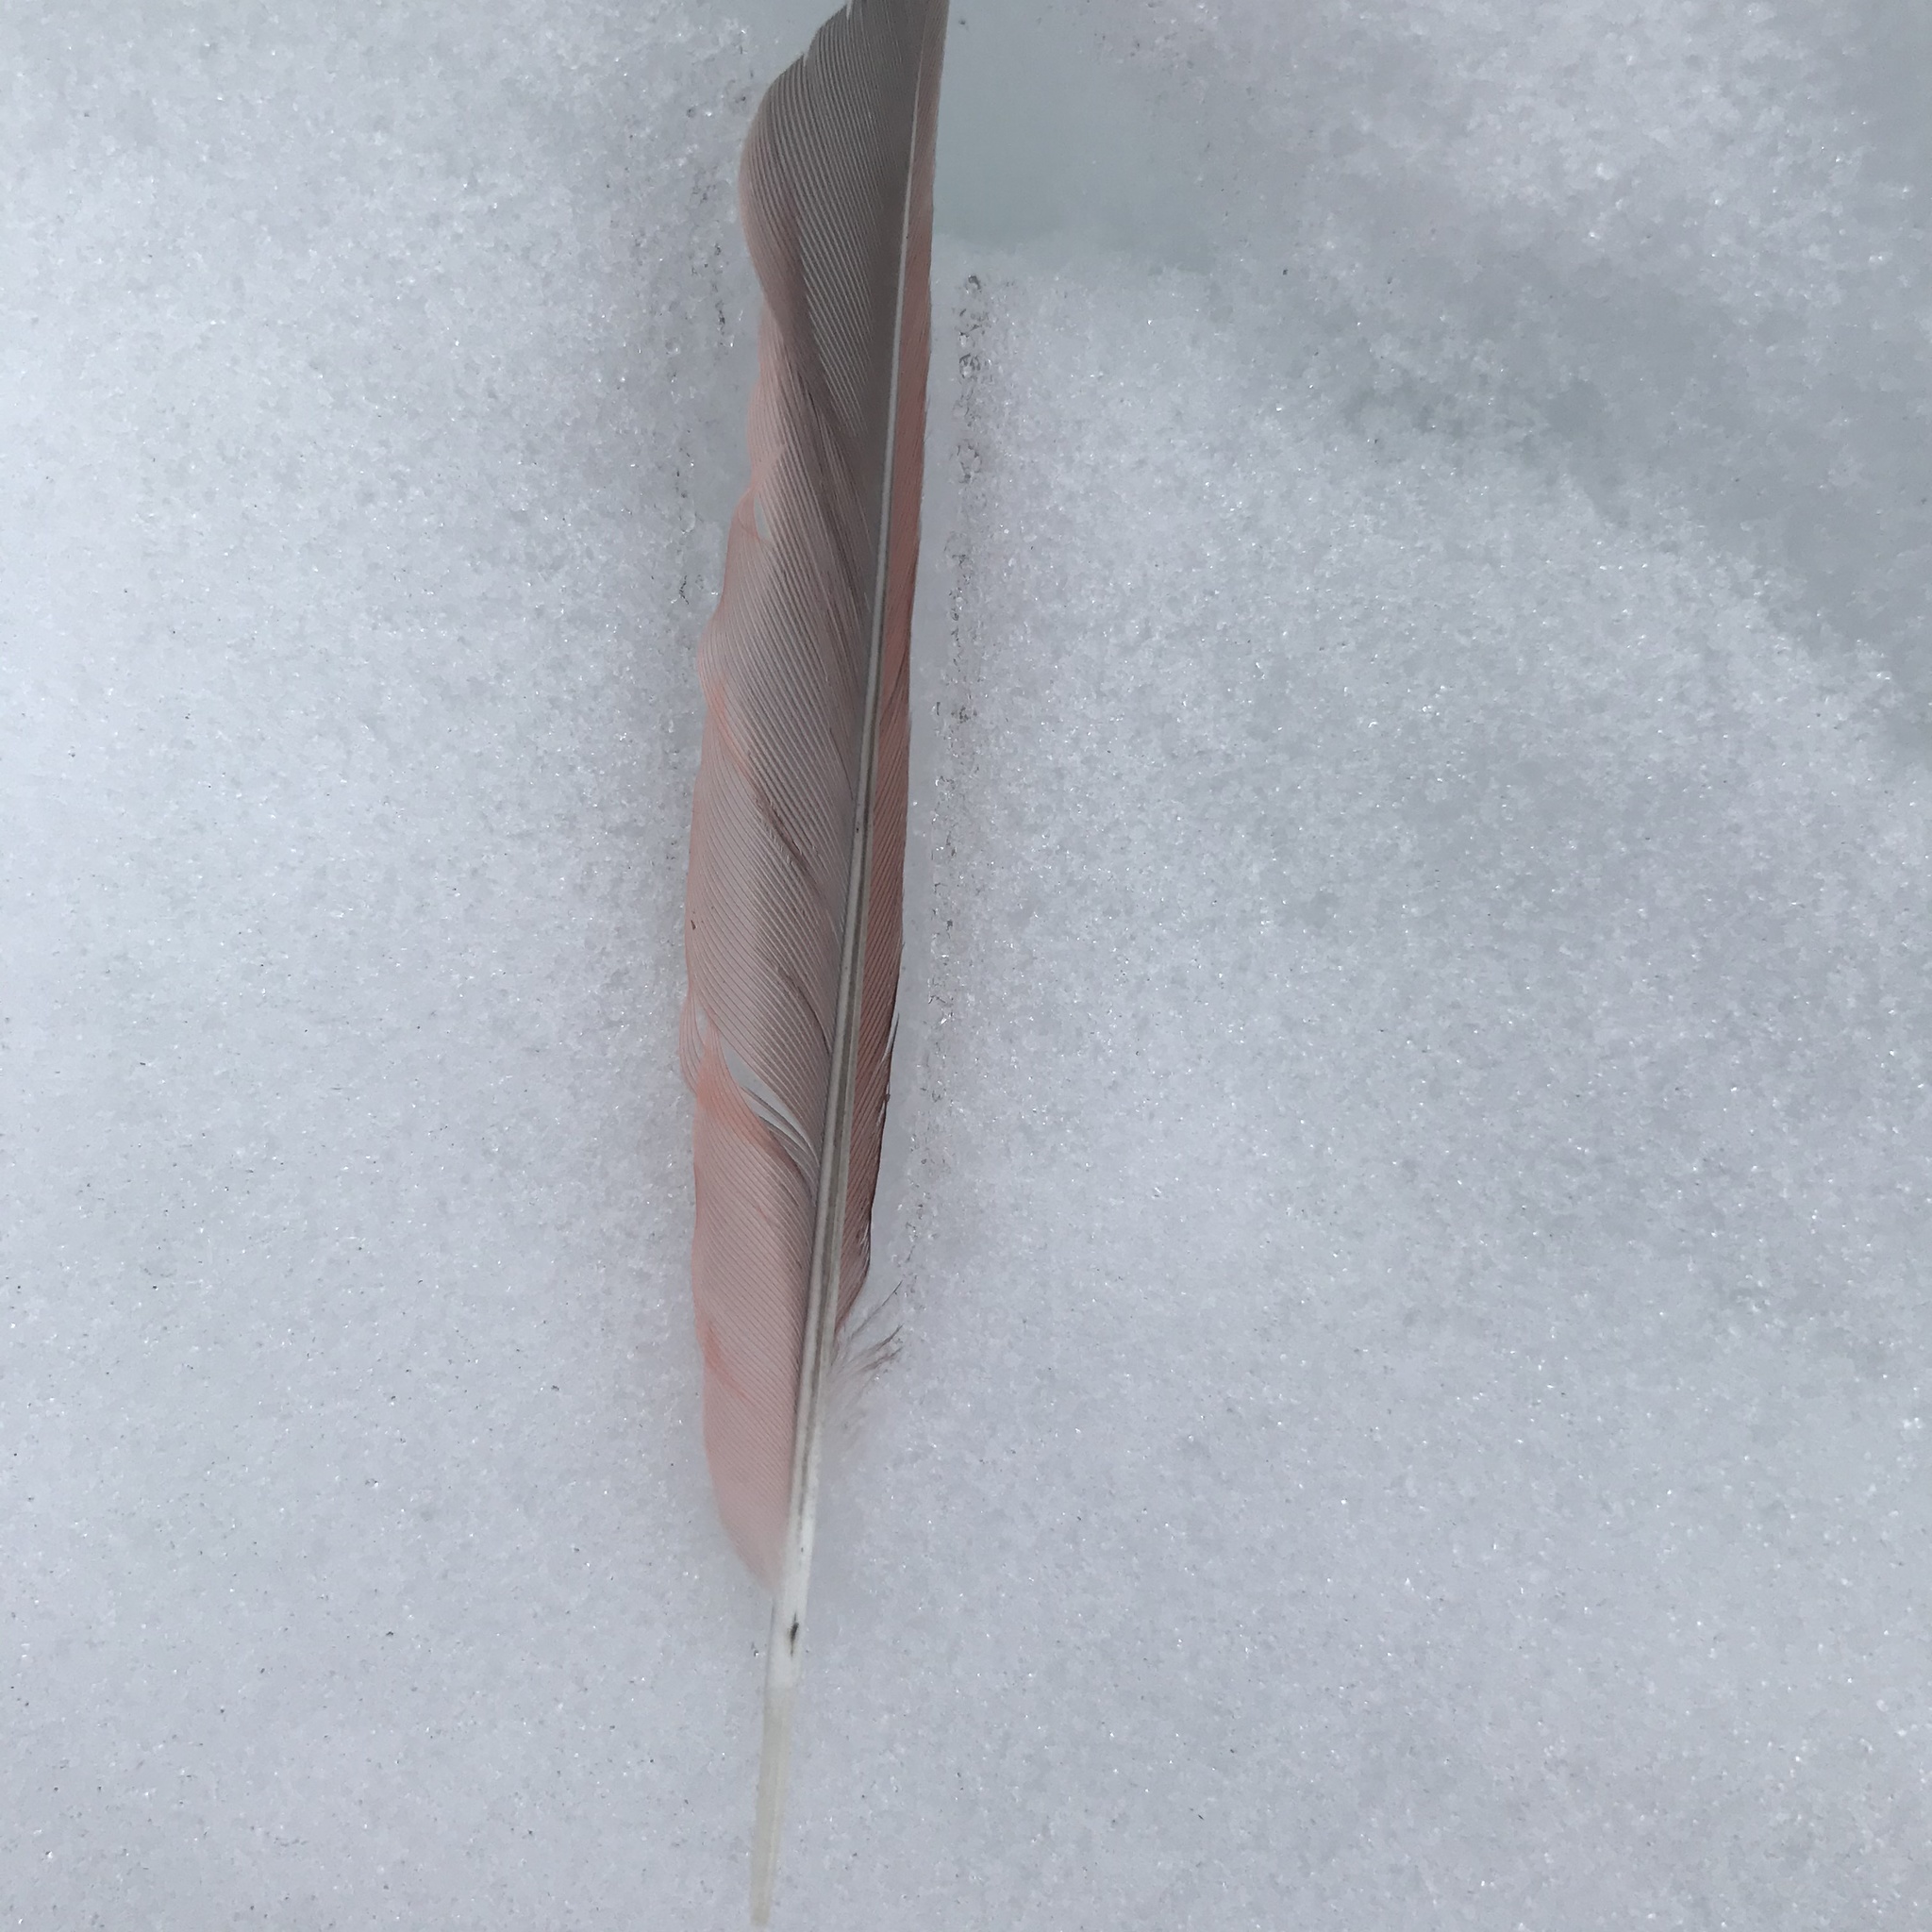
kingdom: Animalia
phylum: Chordata
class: Aves
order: Passeriformes
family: Cardinalidae
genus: Cardinalis
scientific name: Cardinalis cardinalis
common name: Northern cardinal
